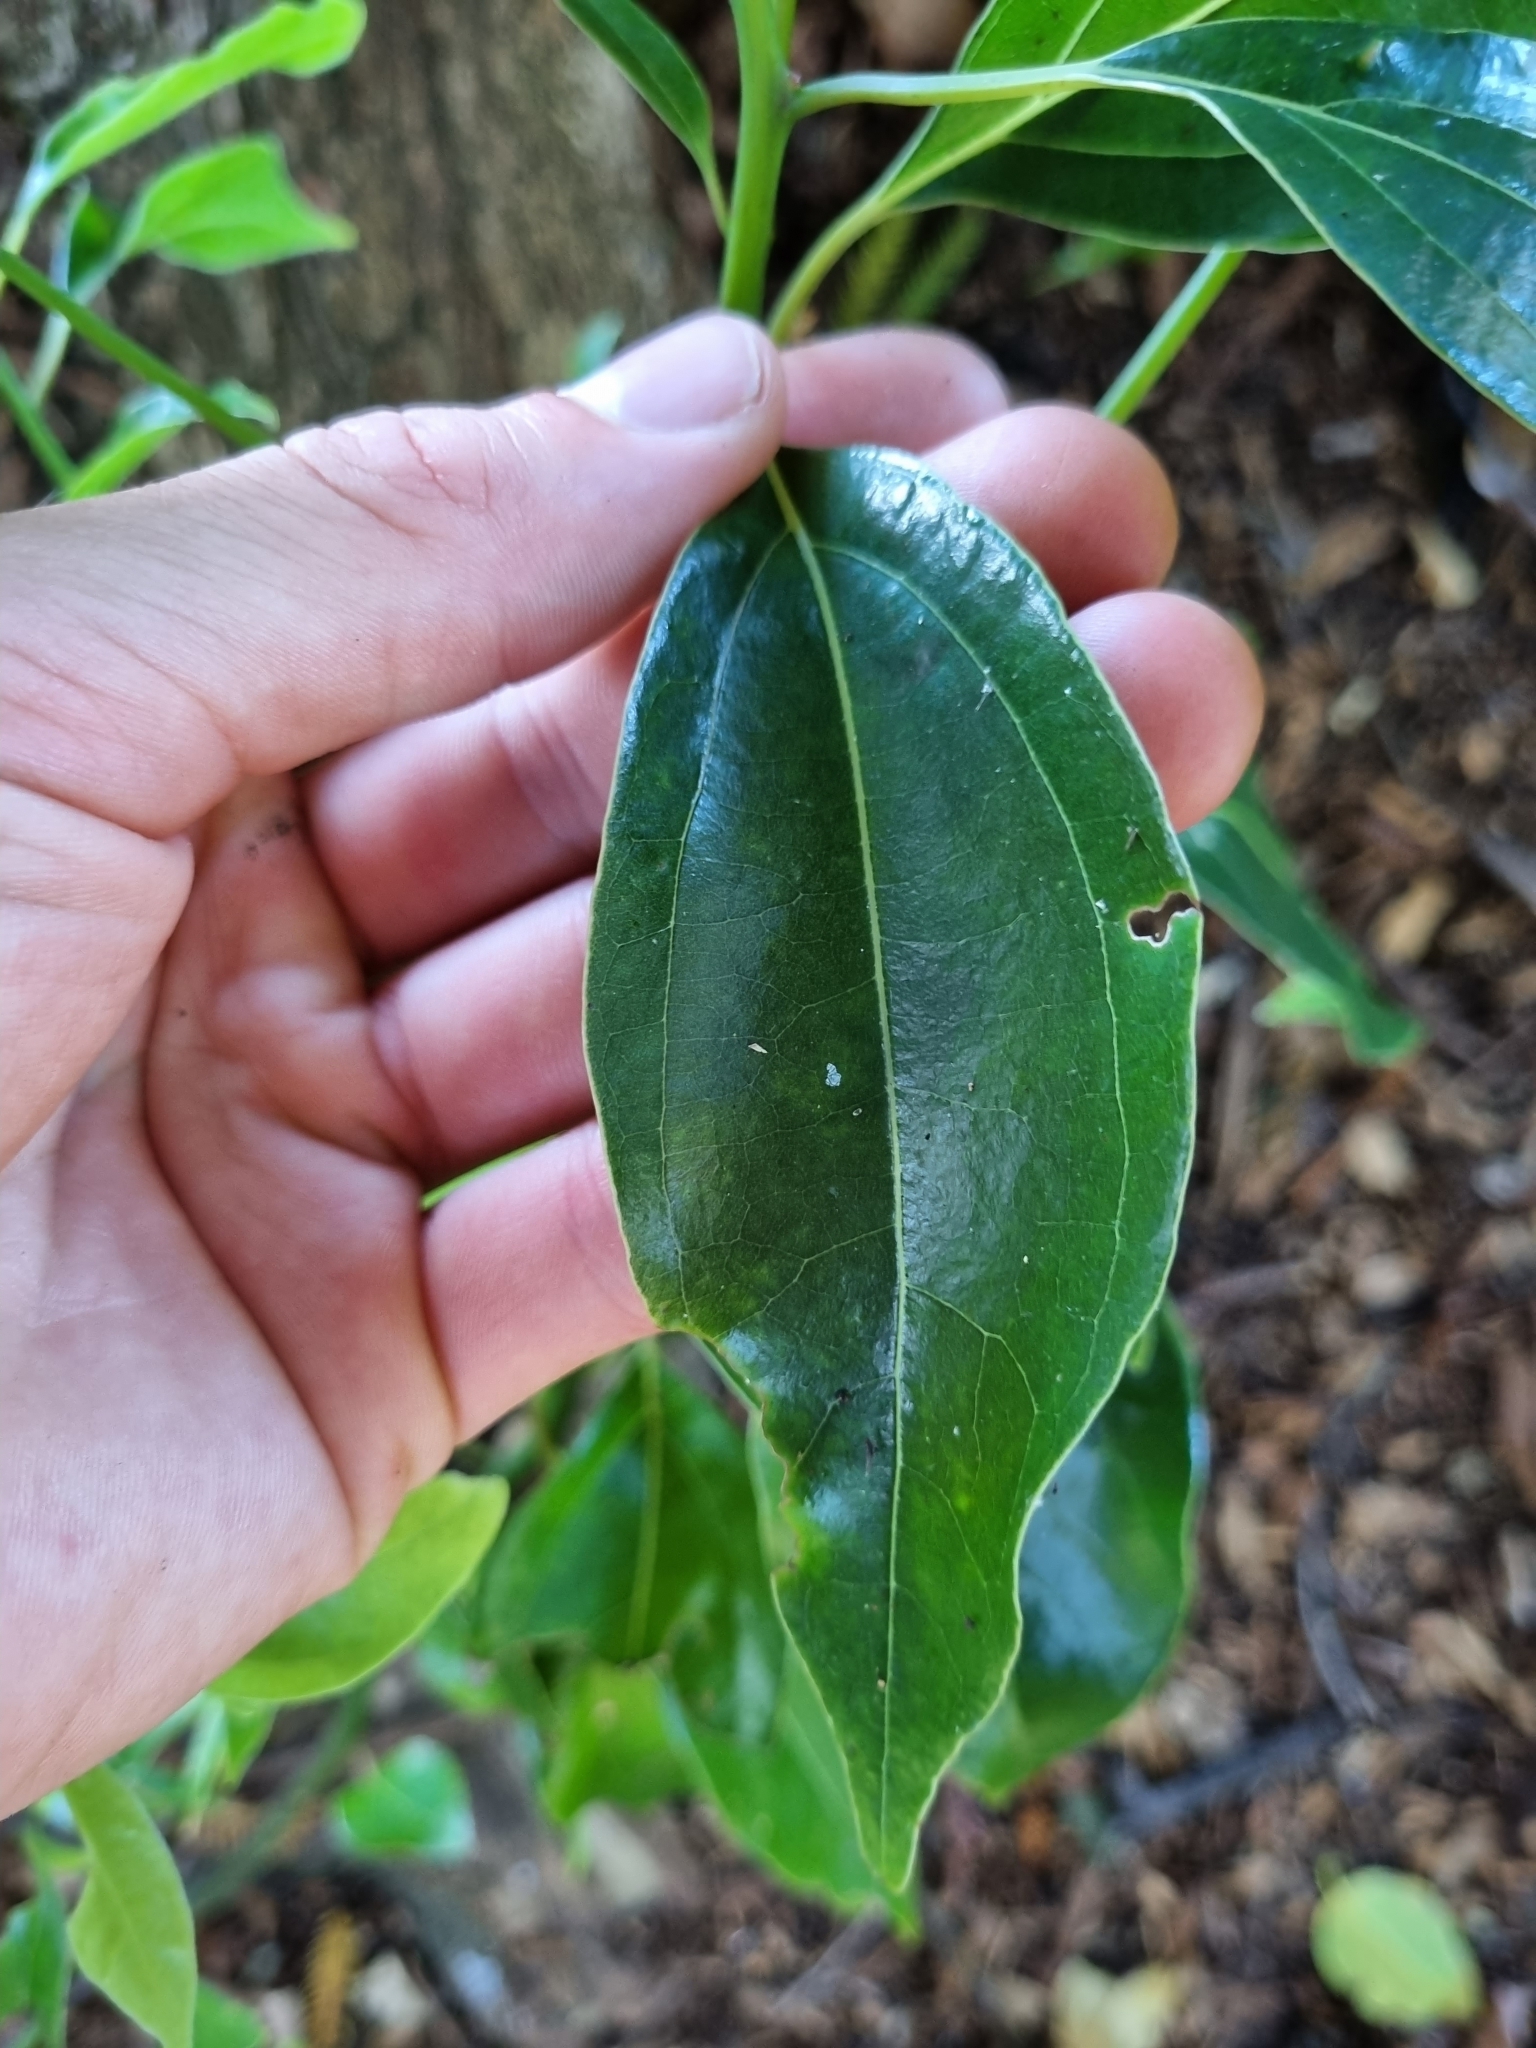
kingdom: Plantae
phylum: Tracheophyta
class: Magnoliopsida
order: Laurales
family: Lauraceae
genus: Cinnamomum
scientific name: Cinnamomum camphora
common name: Camphortree
